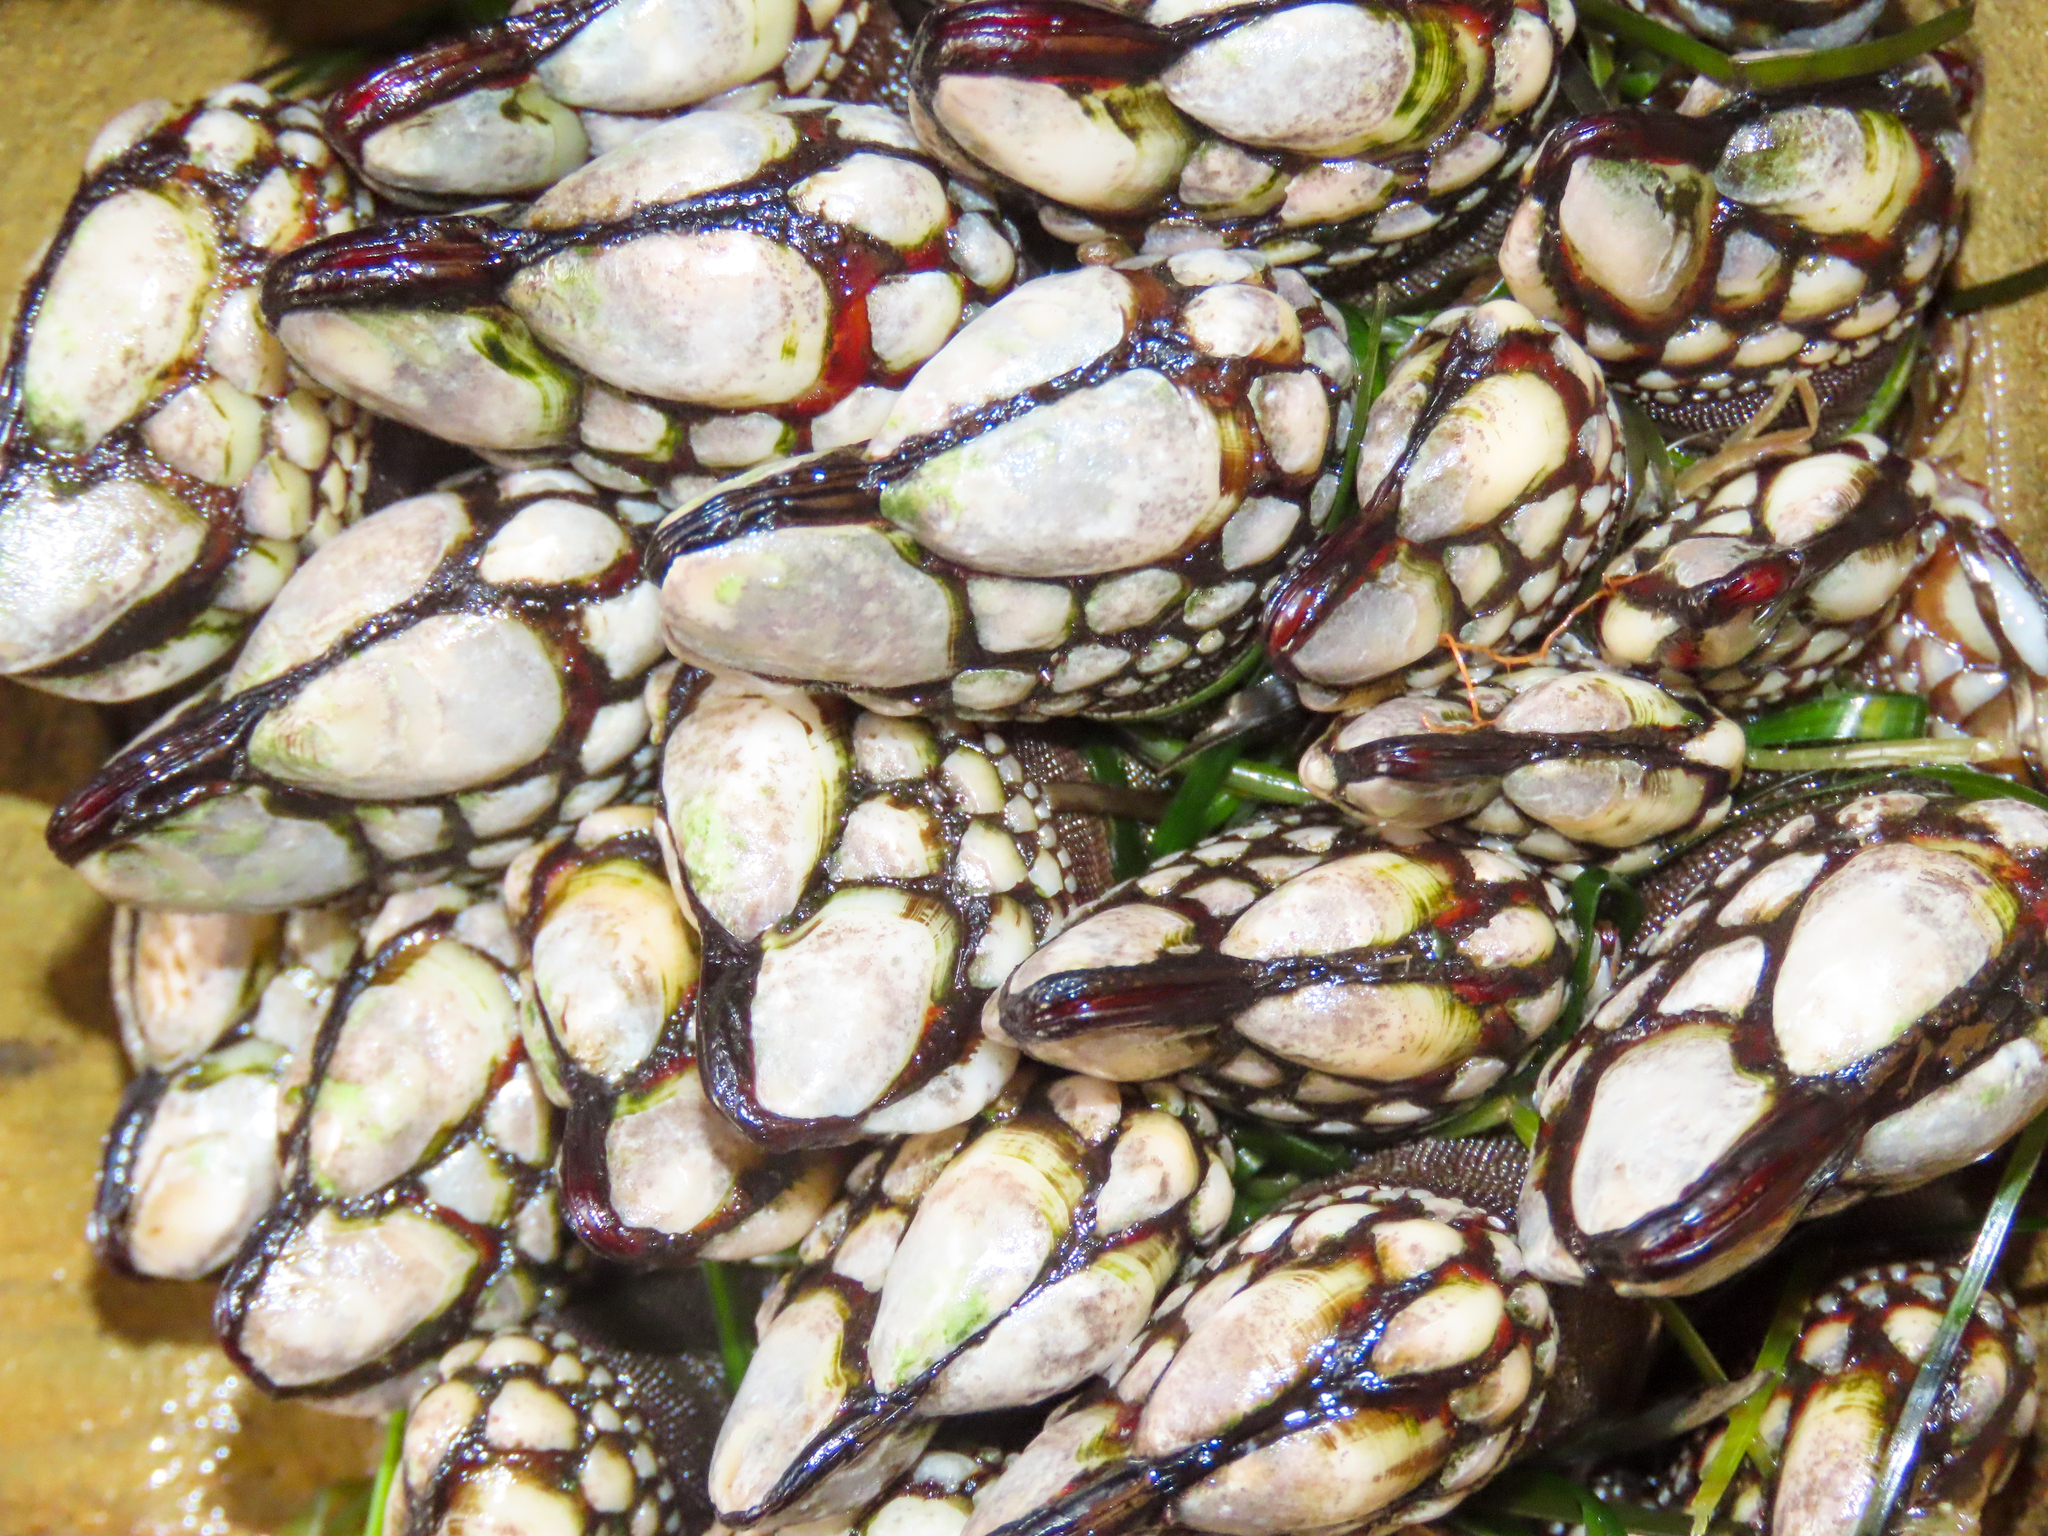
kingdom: Animalia
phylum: Arthropoda
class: Maxillopoda
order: Pedunculata
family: Pollicipedidae
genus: Pollicipes
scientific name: Pollicipes polymerus
